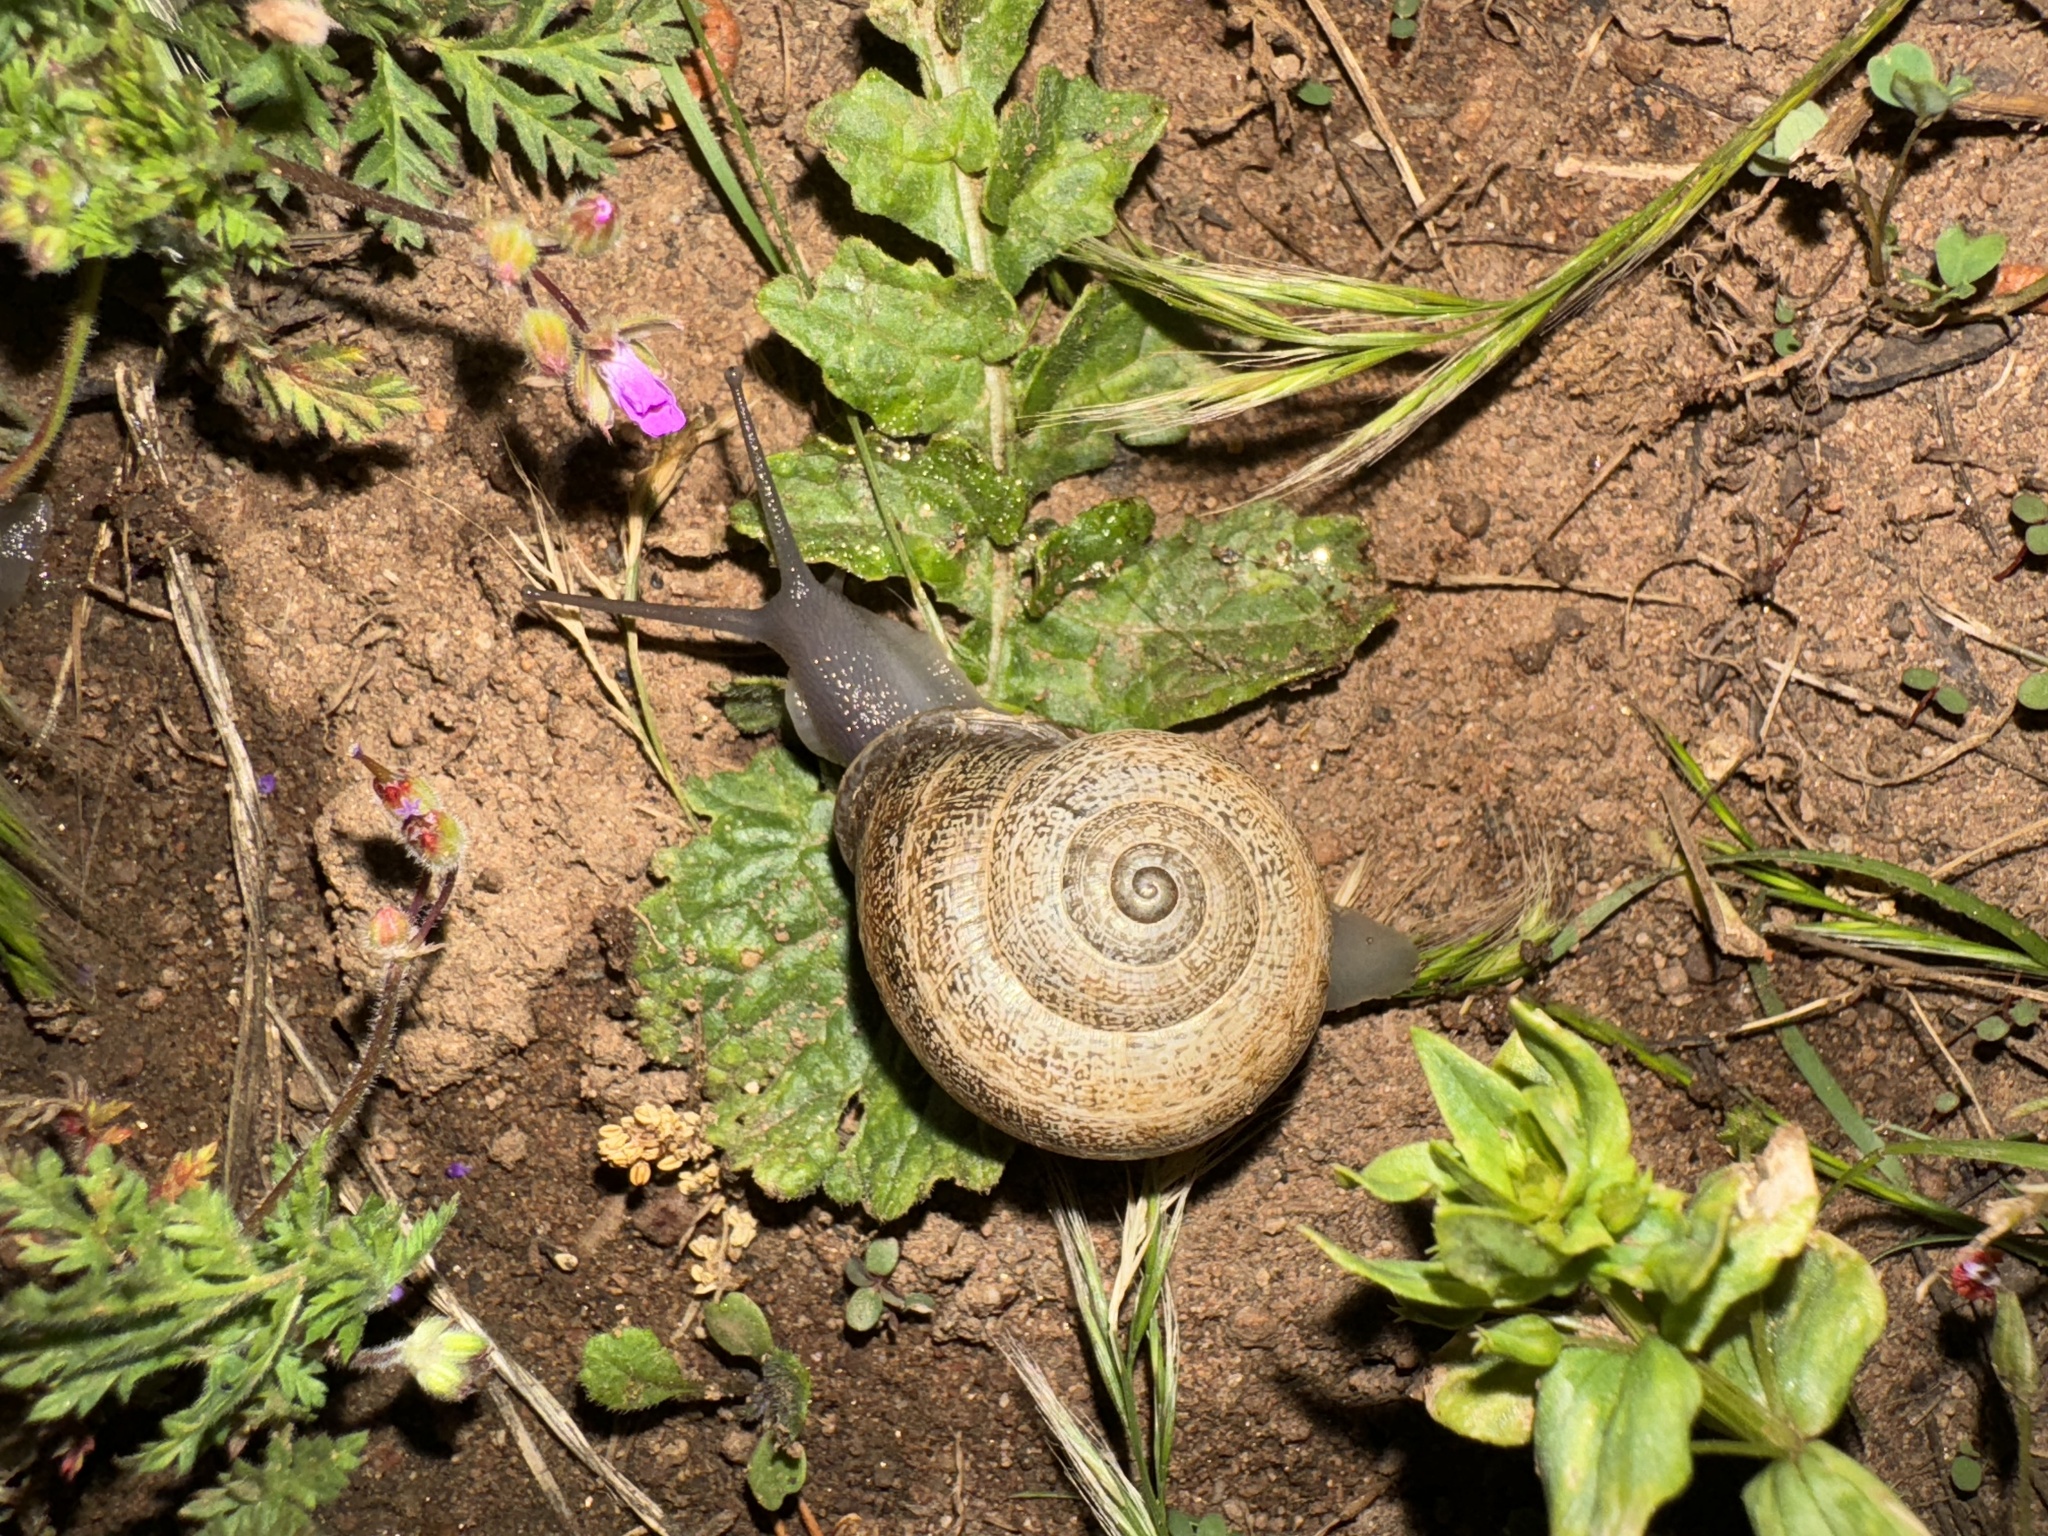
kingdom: Animalia
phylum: Mollusca
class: Gastropoda
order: Stylommatophora
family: Helicidae
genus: Otala
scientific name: Otala lactea
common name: Milk snail
